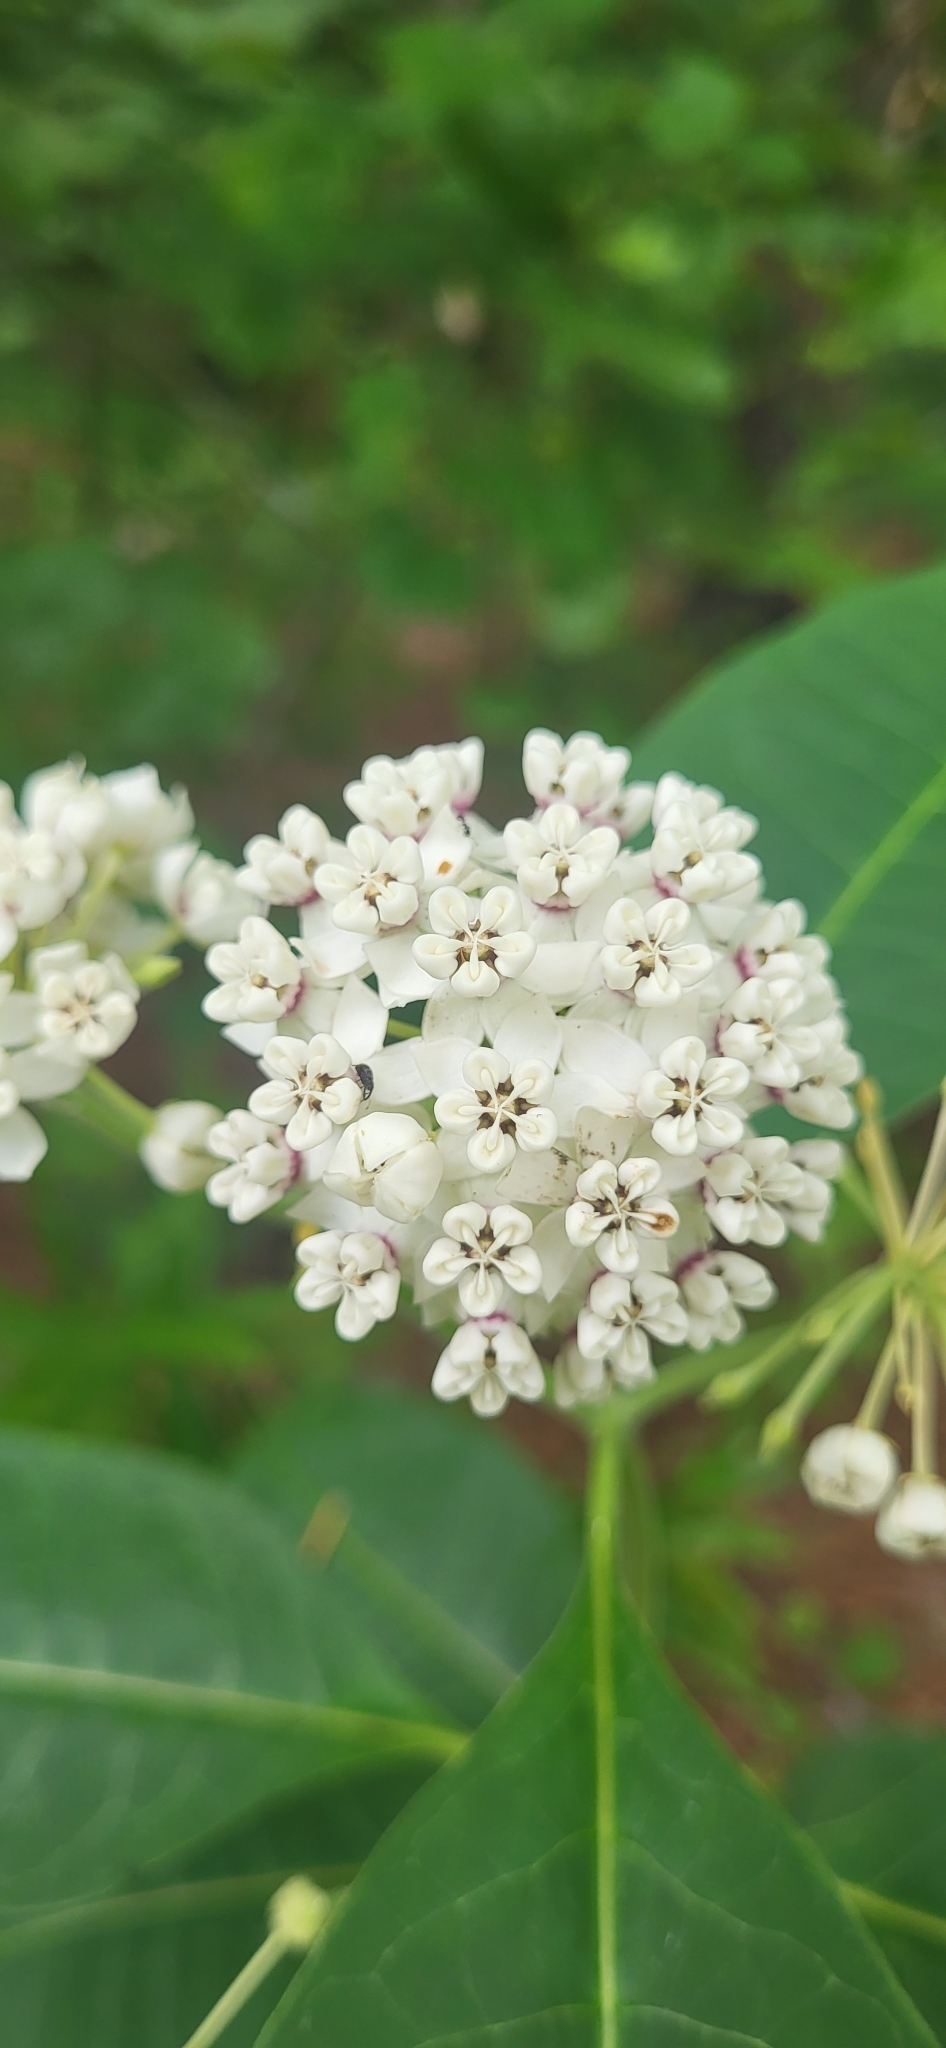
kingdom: Plantae
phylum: Tracheophyta
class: Magnoliopsida
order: Gentianales
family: Apocynaceae
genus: Asclepias
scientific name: Asclepias variegata
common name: Variegated milkweed
